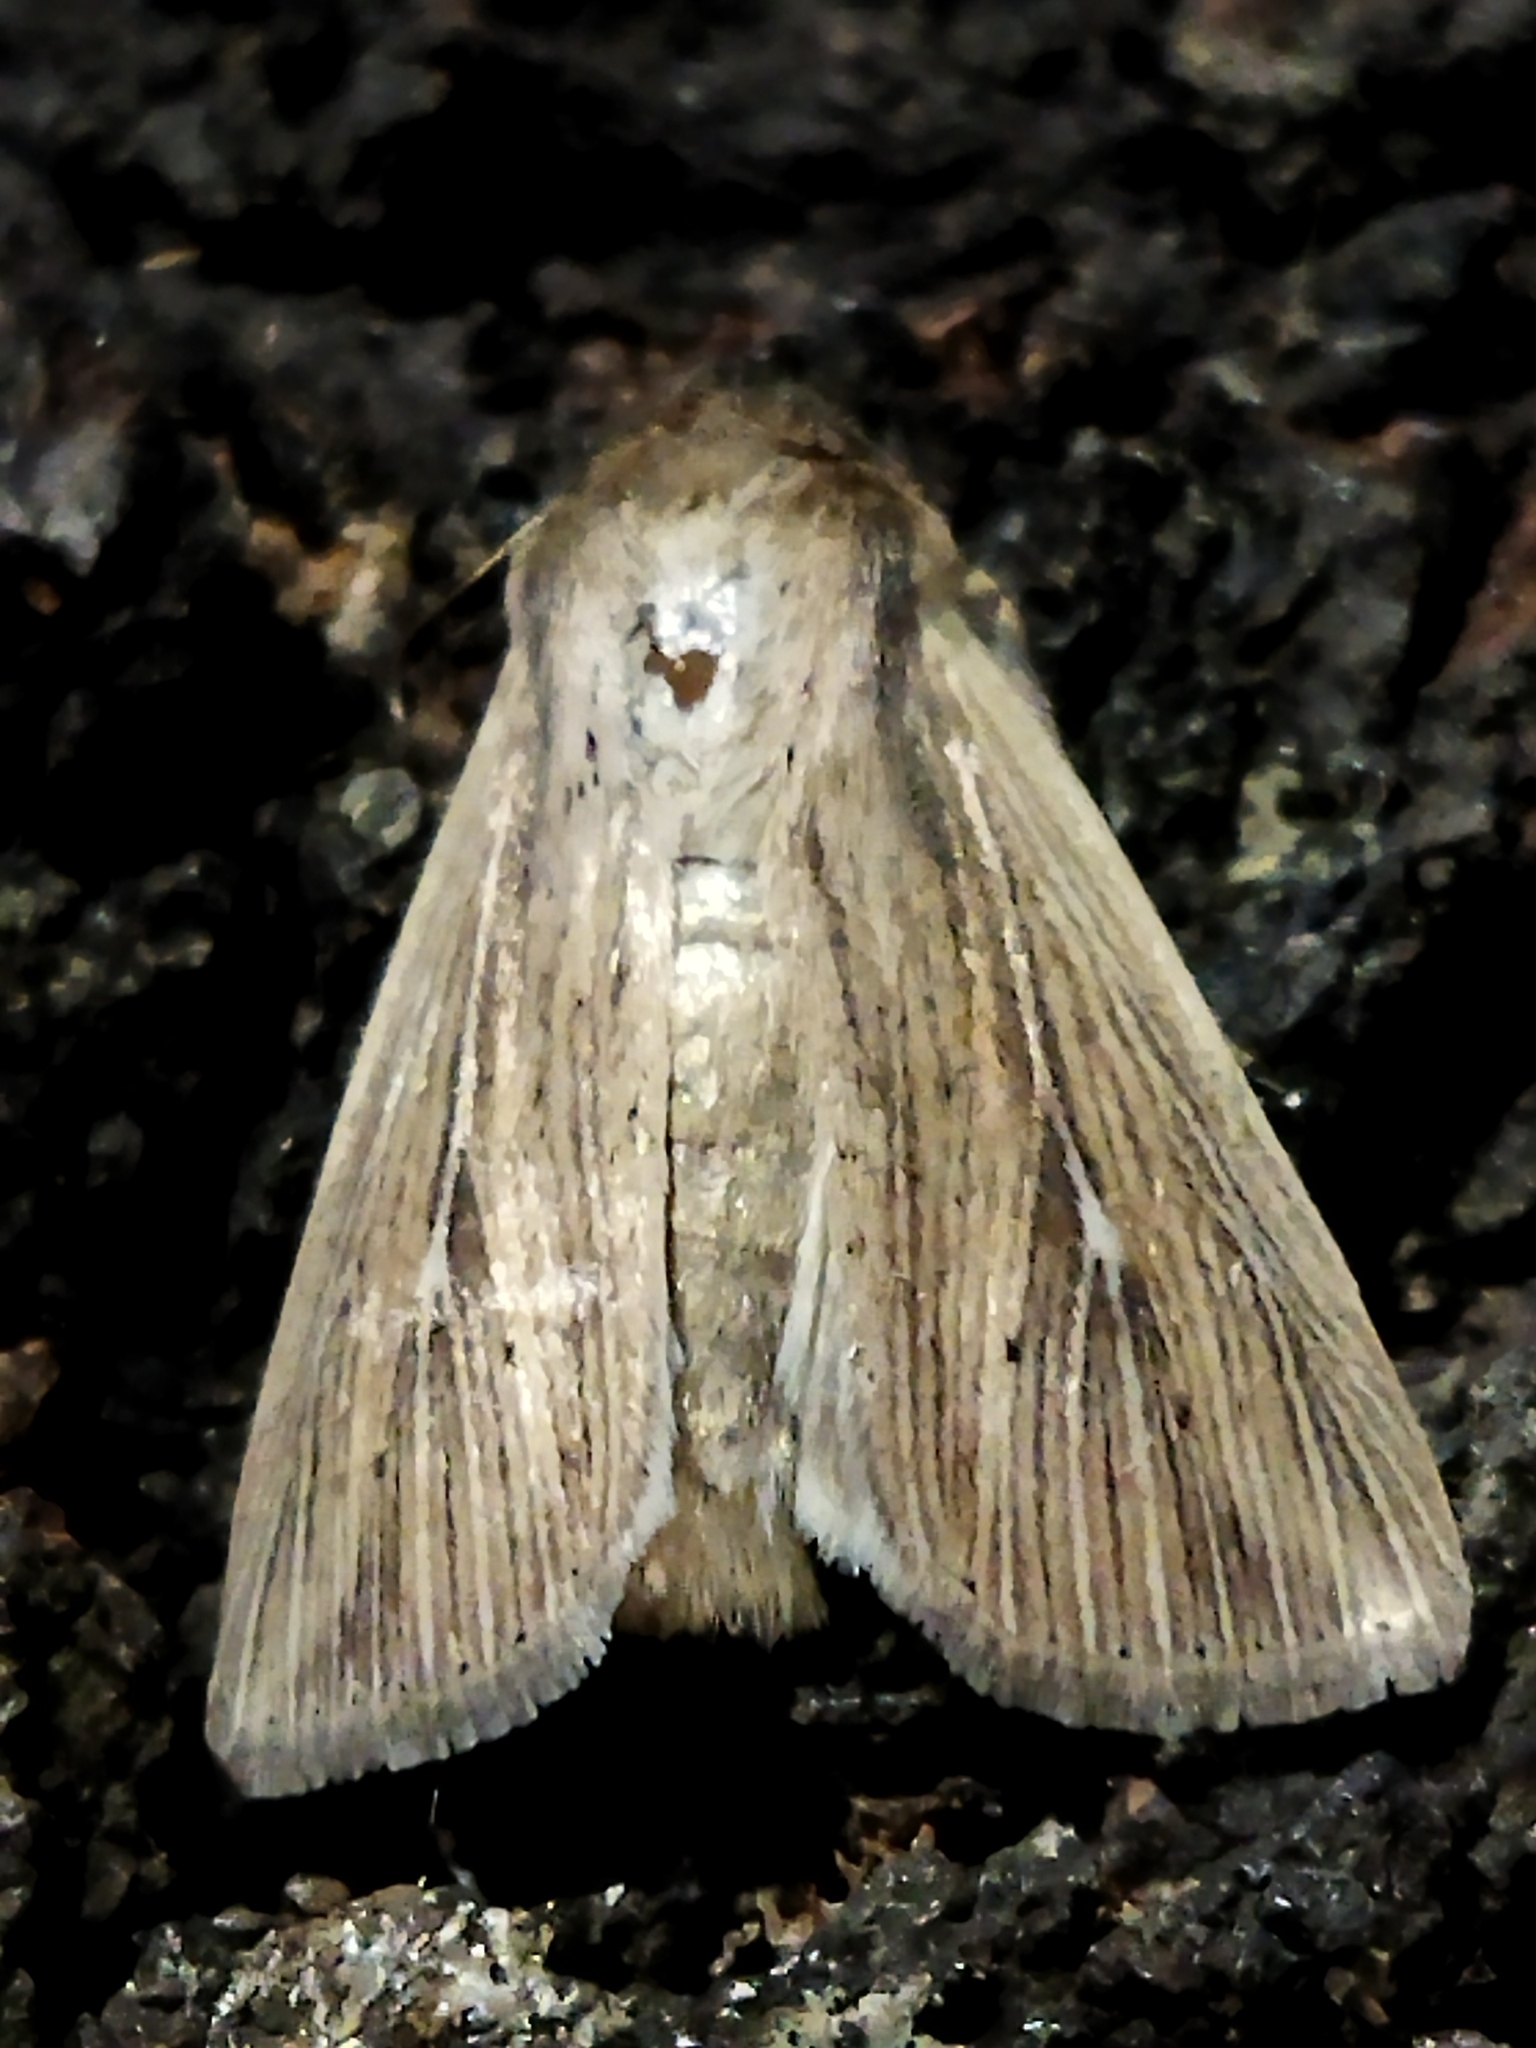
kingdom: Animalia
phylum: Arthropoda
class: Insecta
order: Lepidoptera
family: Noctuidae
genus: Mythimna
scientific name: Mythimna congrua
